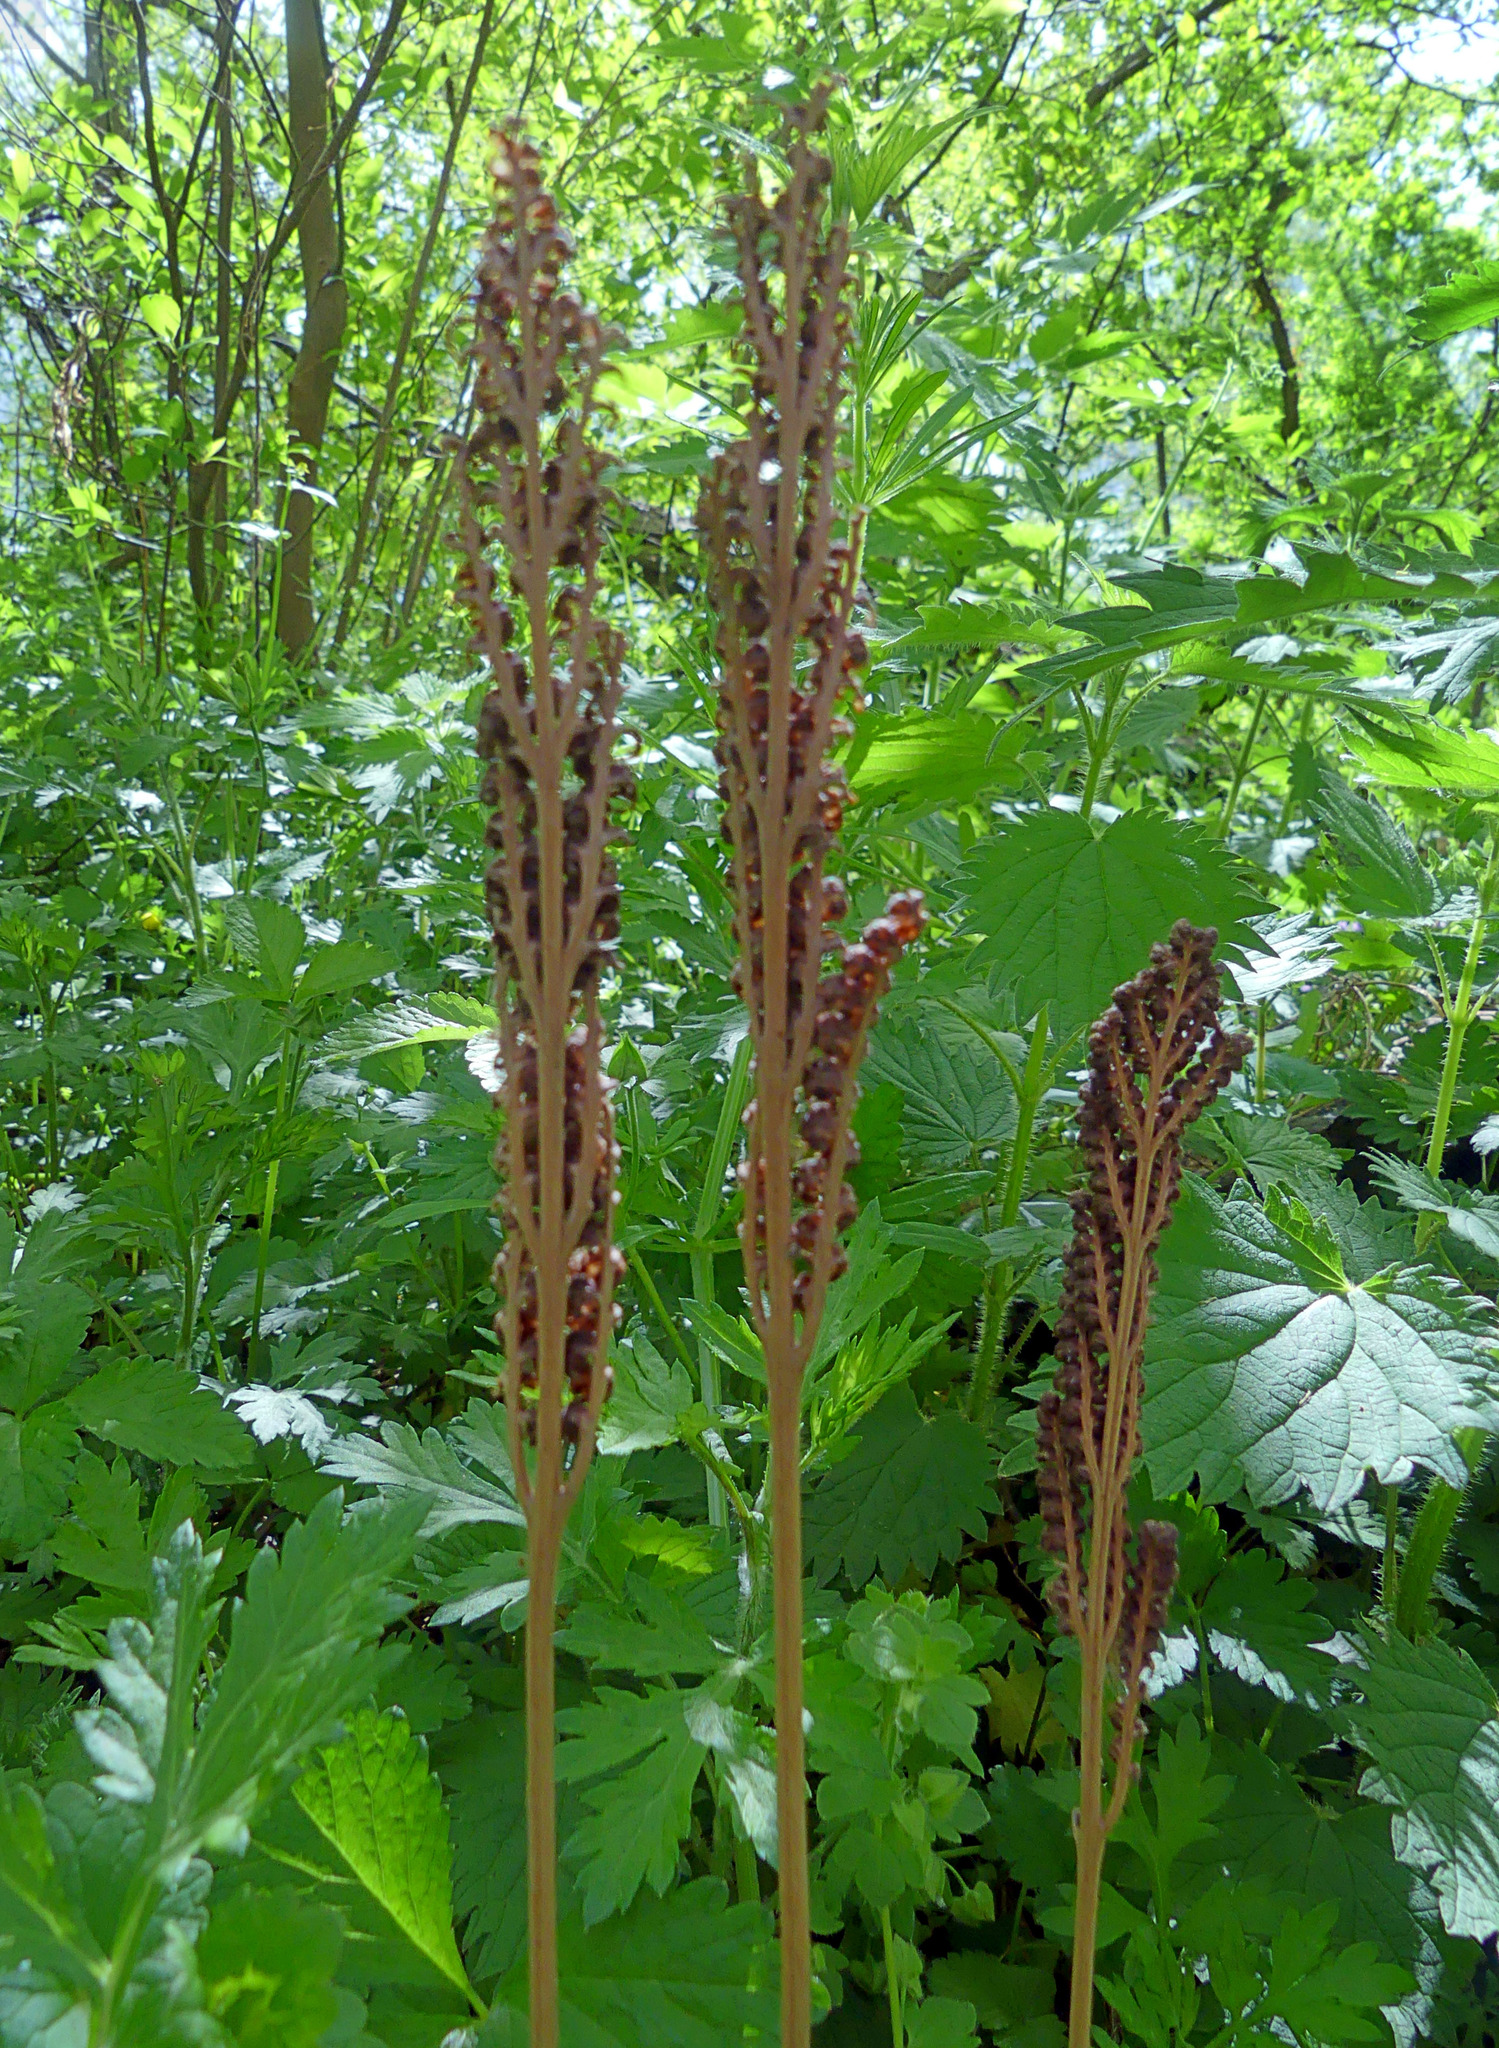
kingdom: Plantae
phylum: Tracheophyta
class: Polypodiopsida
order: Polypodiales
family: Onocleaceae
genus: Onoclea
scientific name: Onoclea sensibilis
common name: Sensitive fern
